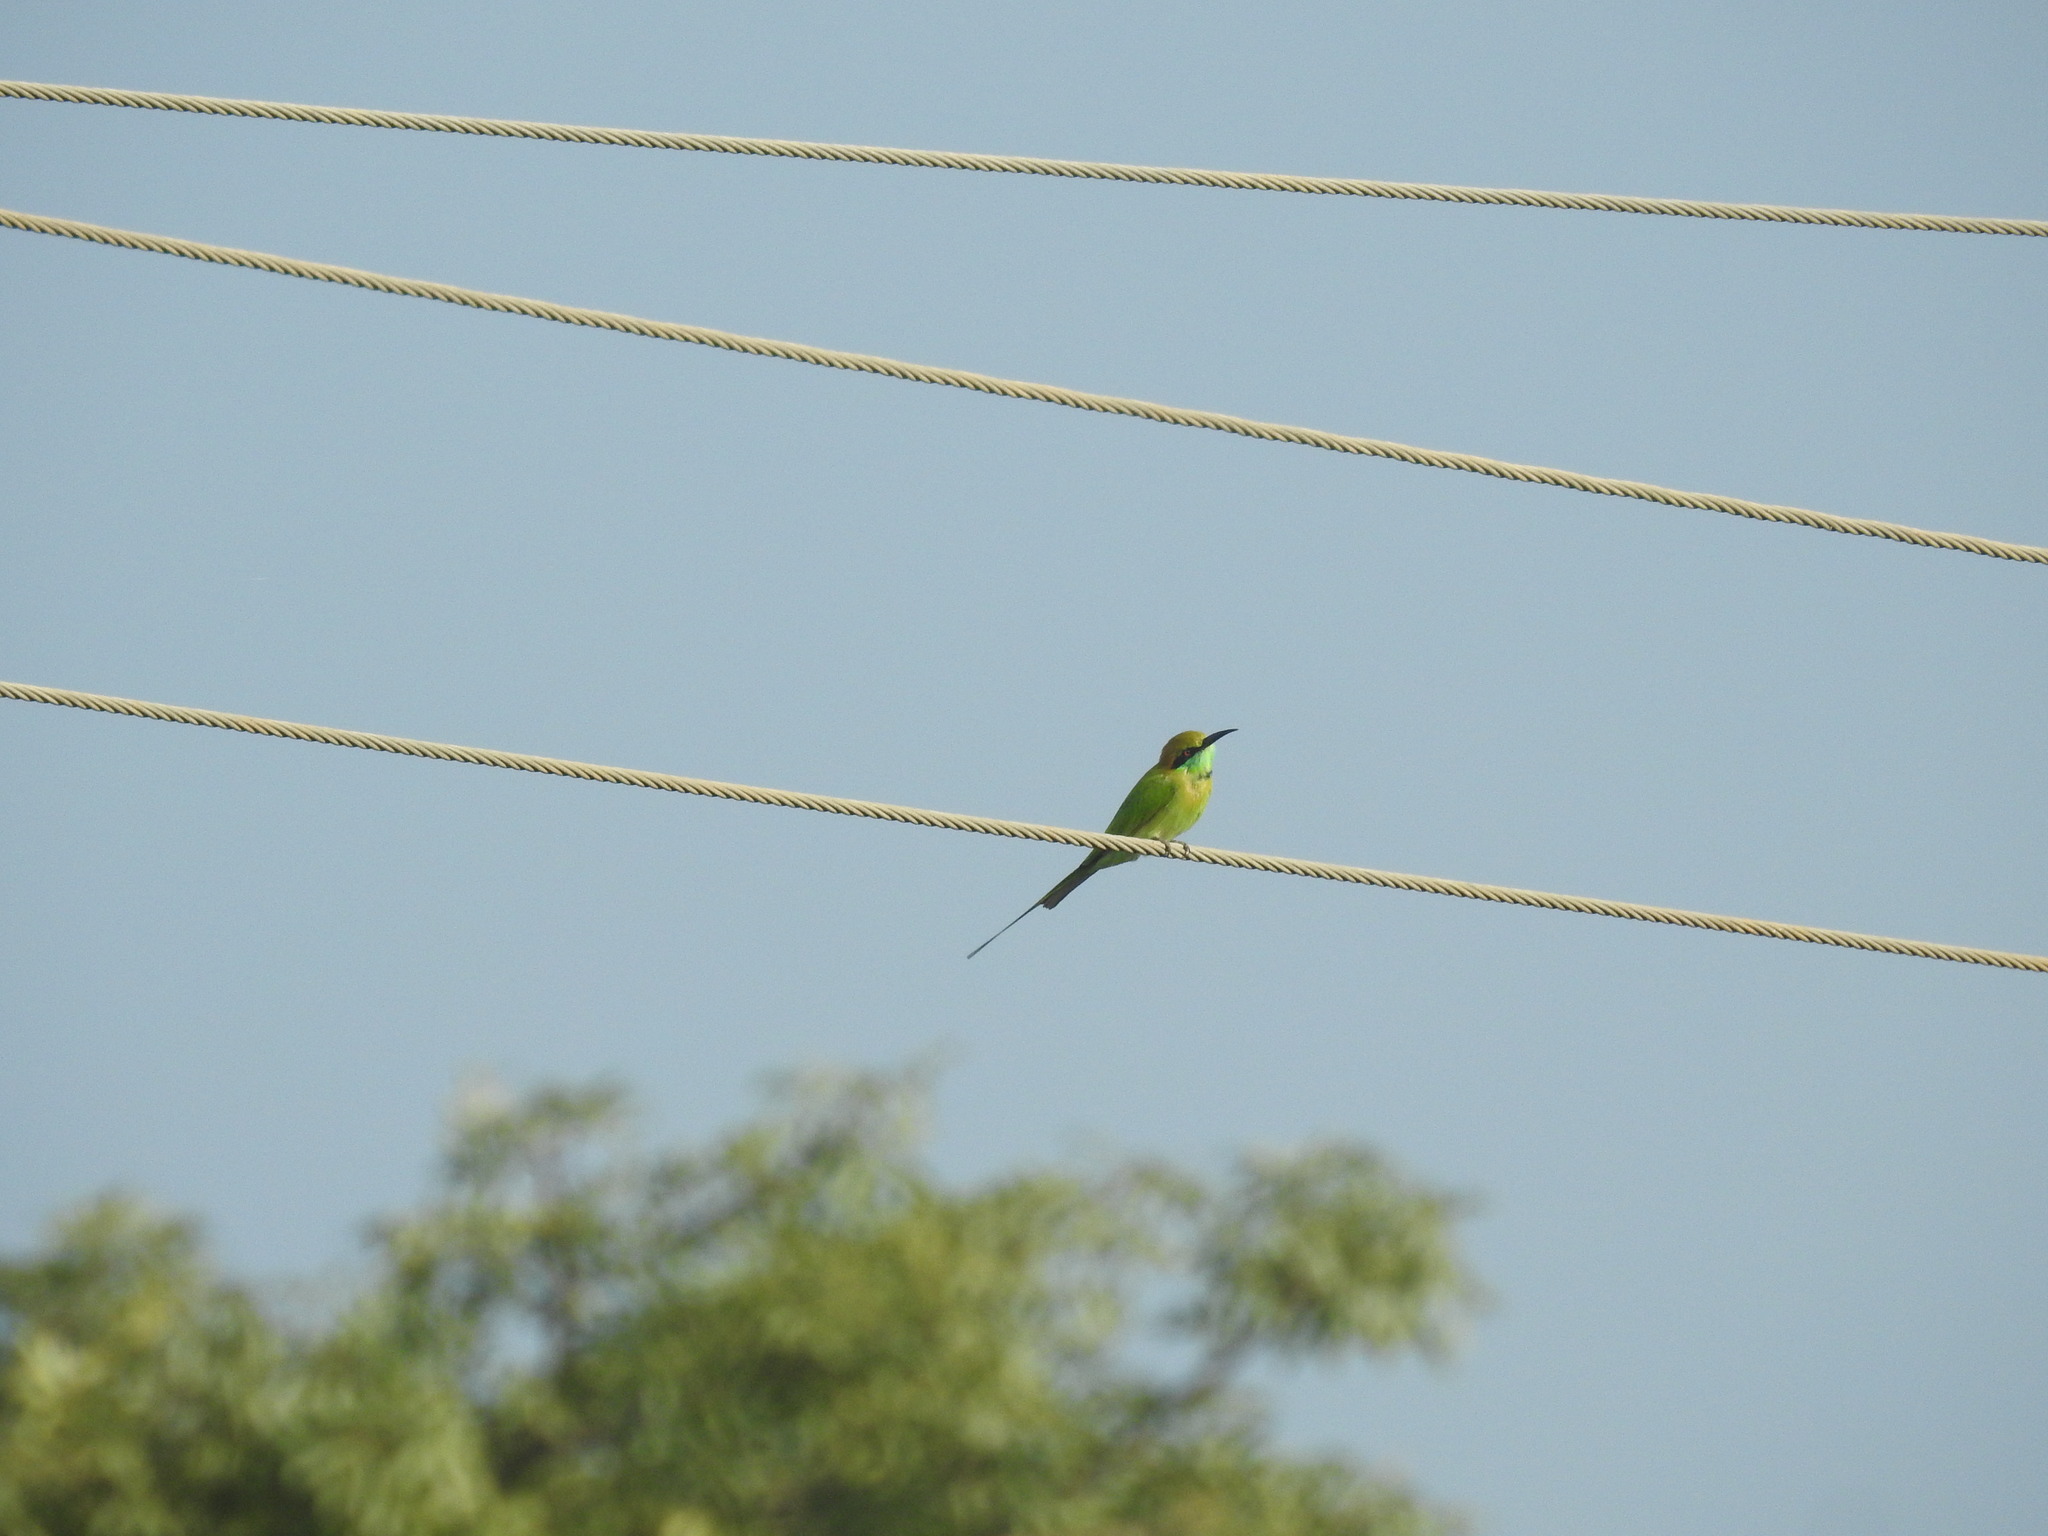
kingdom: Animalia
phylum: Chordata
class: Aves
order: Coraciiformes
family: Meropidae
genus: Merops
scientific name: Merops orientalis
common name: Green bee-eater
